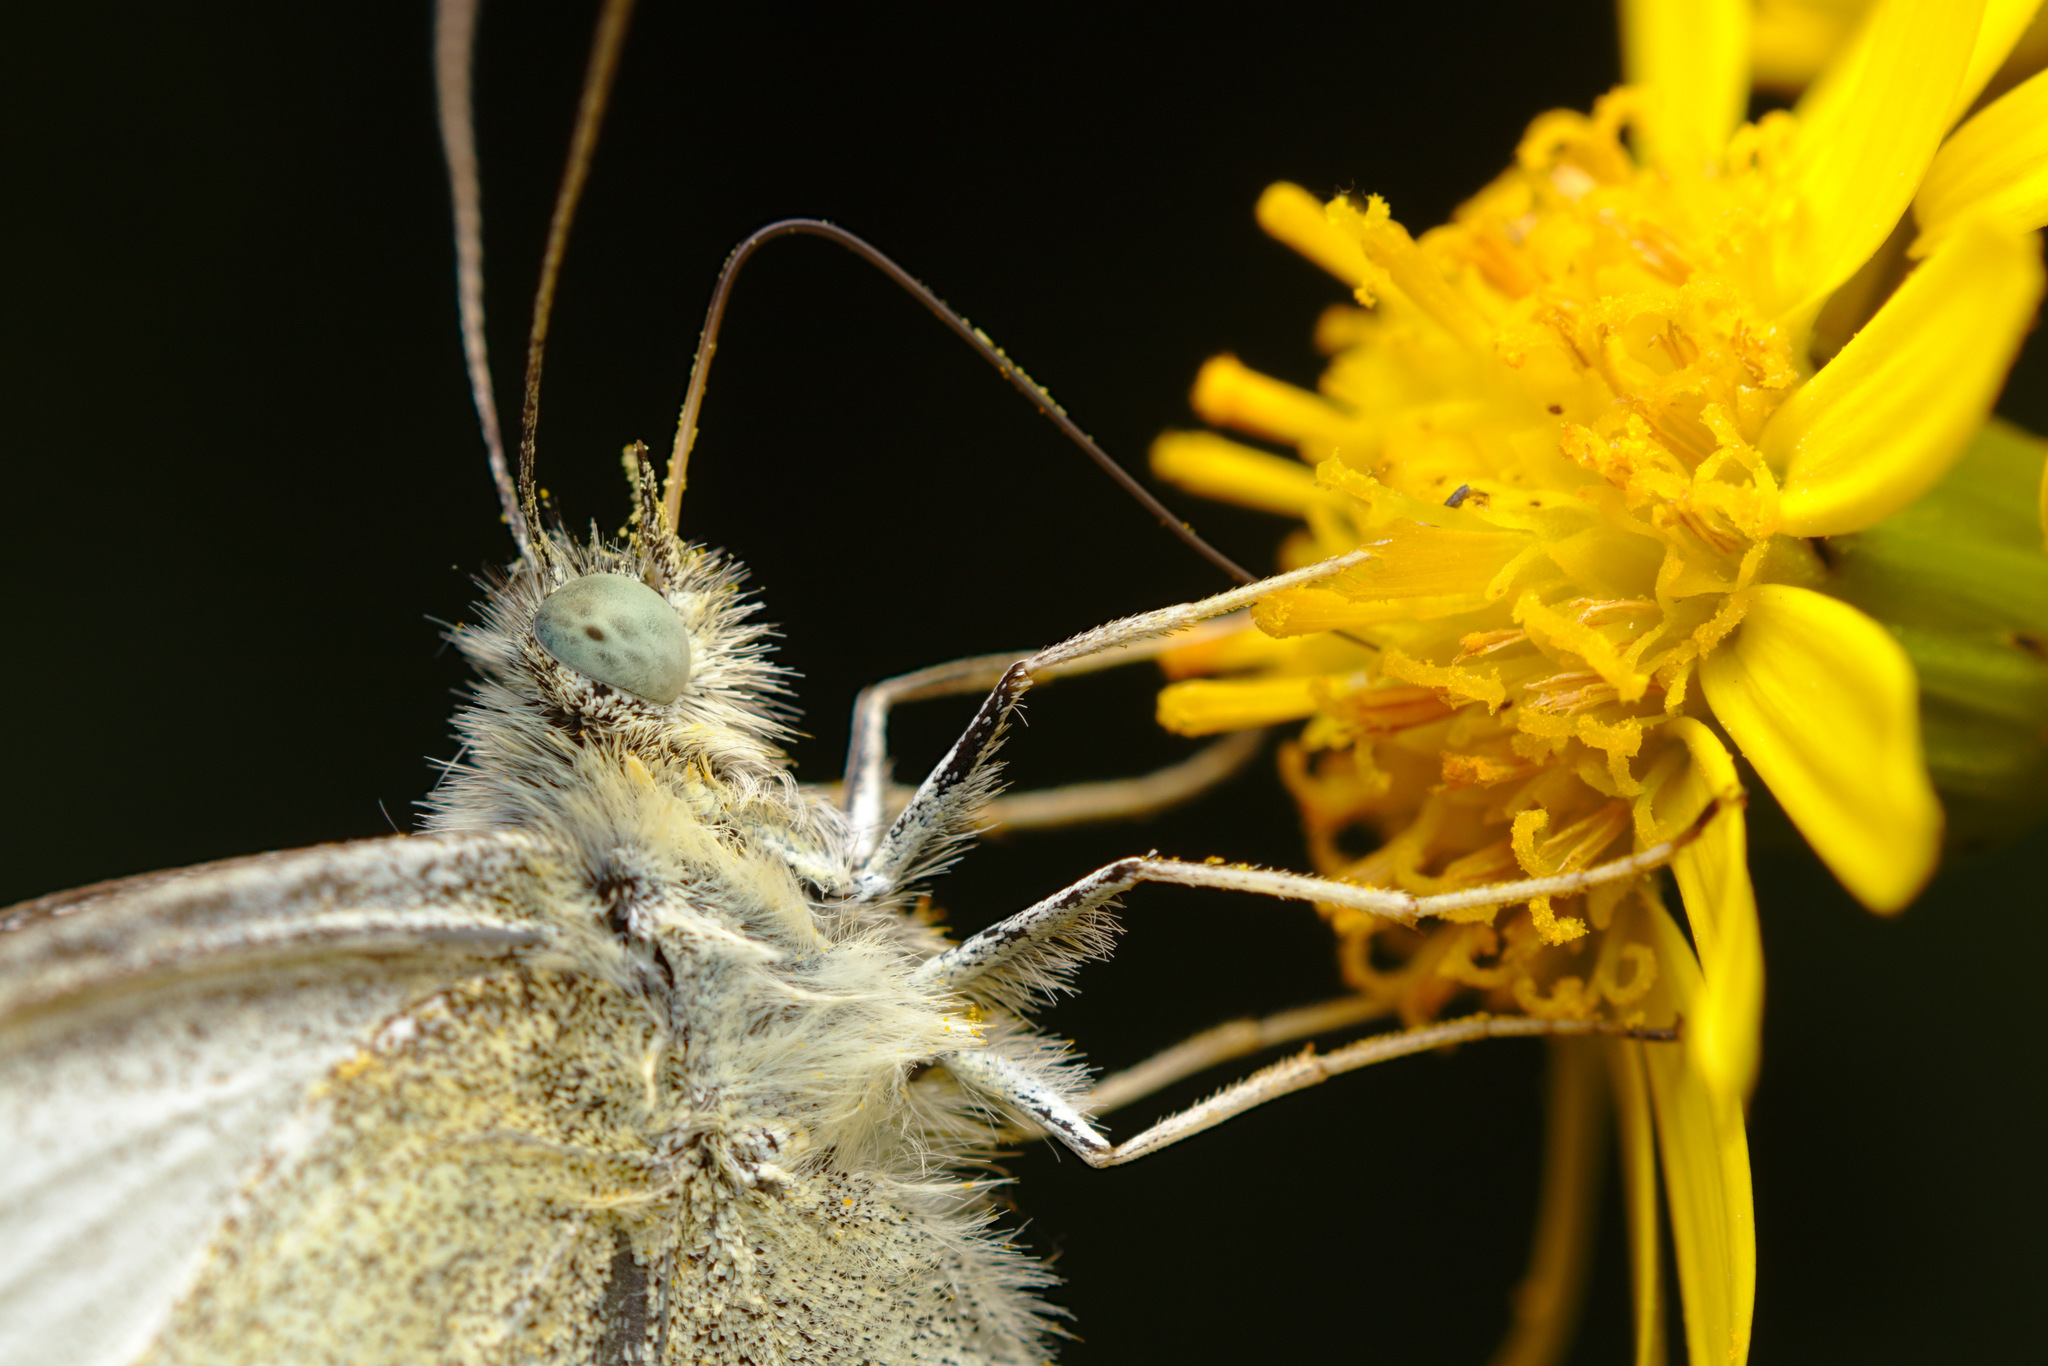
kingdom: Animalia
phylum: Arthropoda
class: Insecta
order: Lepidoptera
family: Pieridae
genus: Pieris
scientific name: Pieris rapae
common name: Small white
